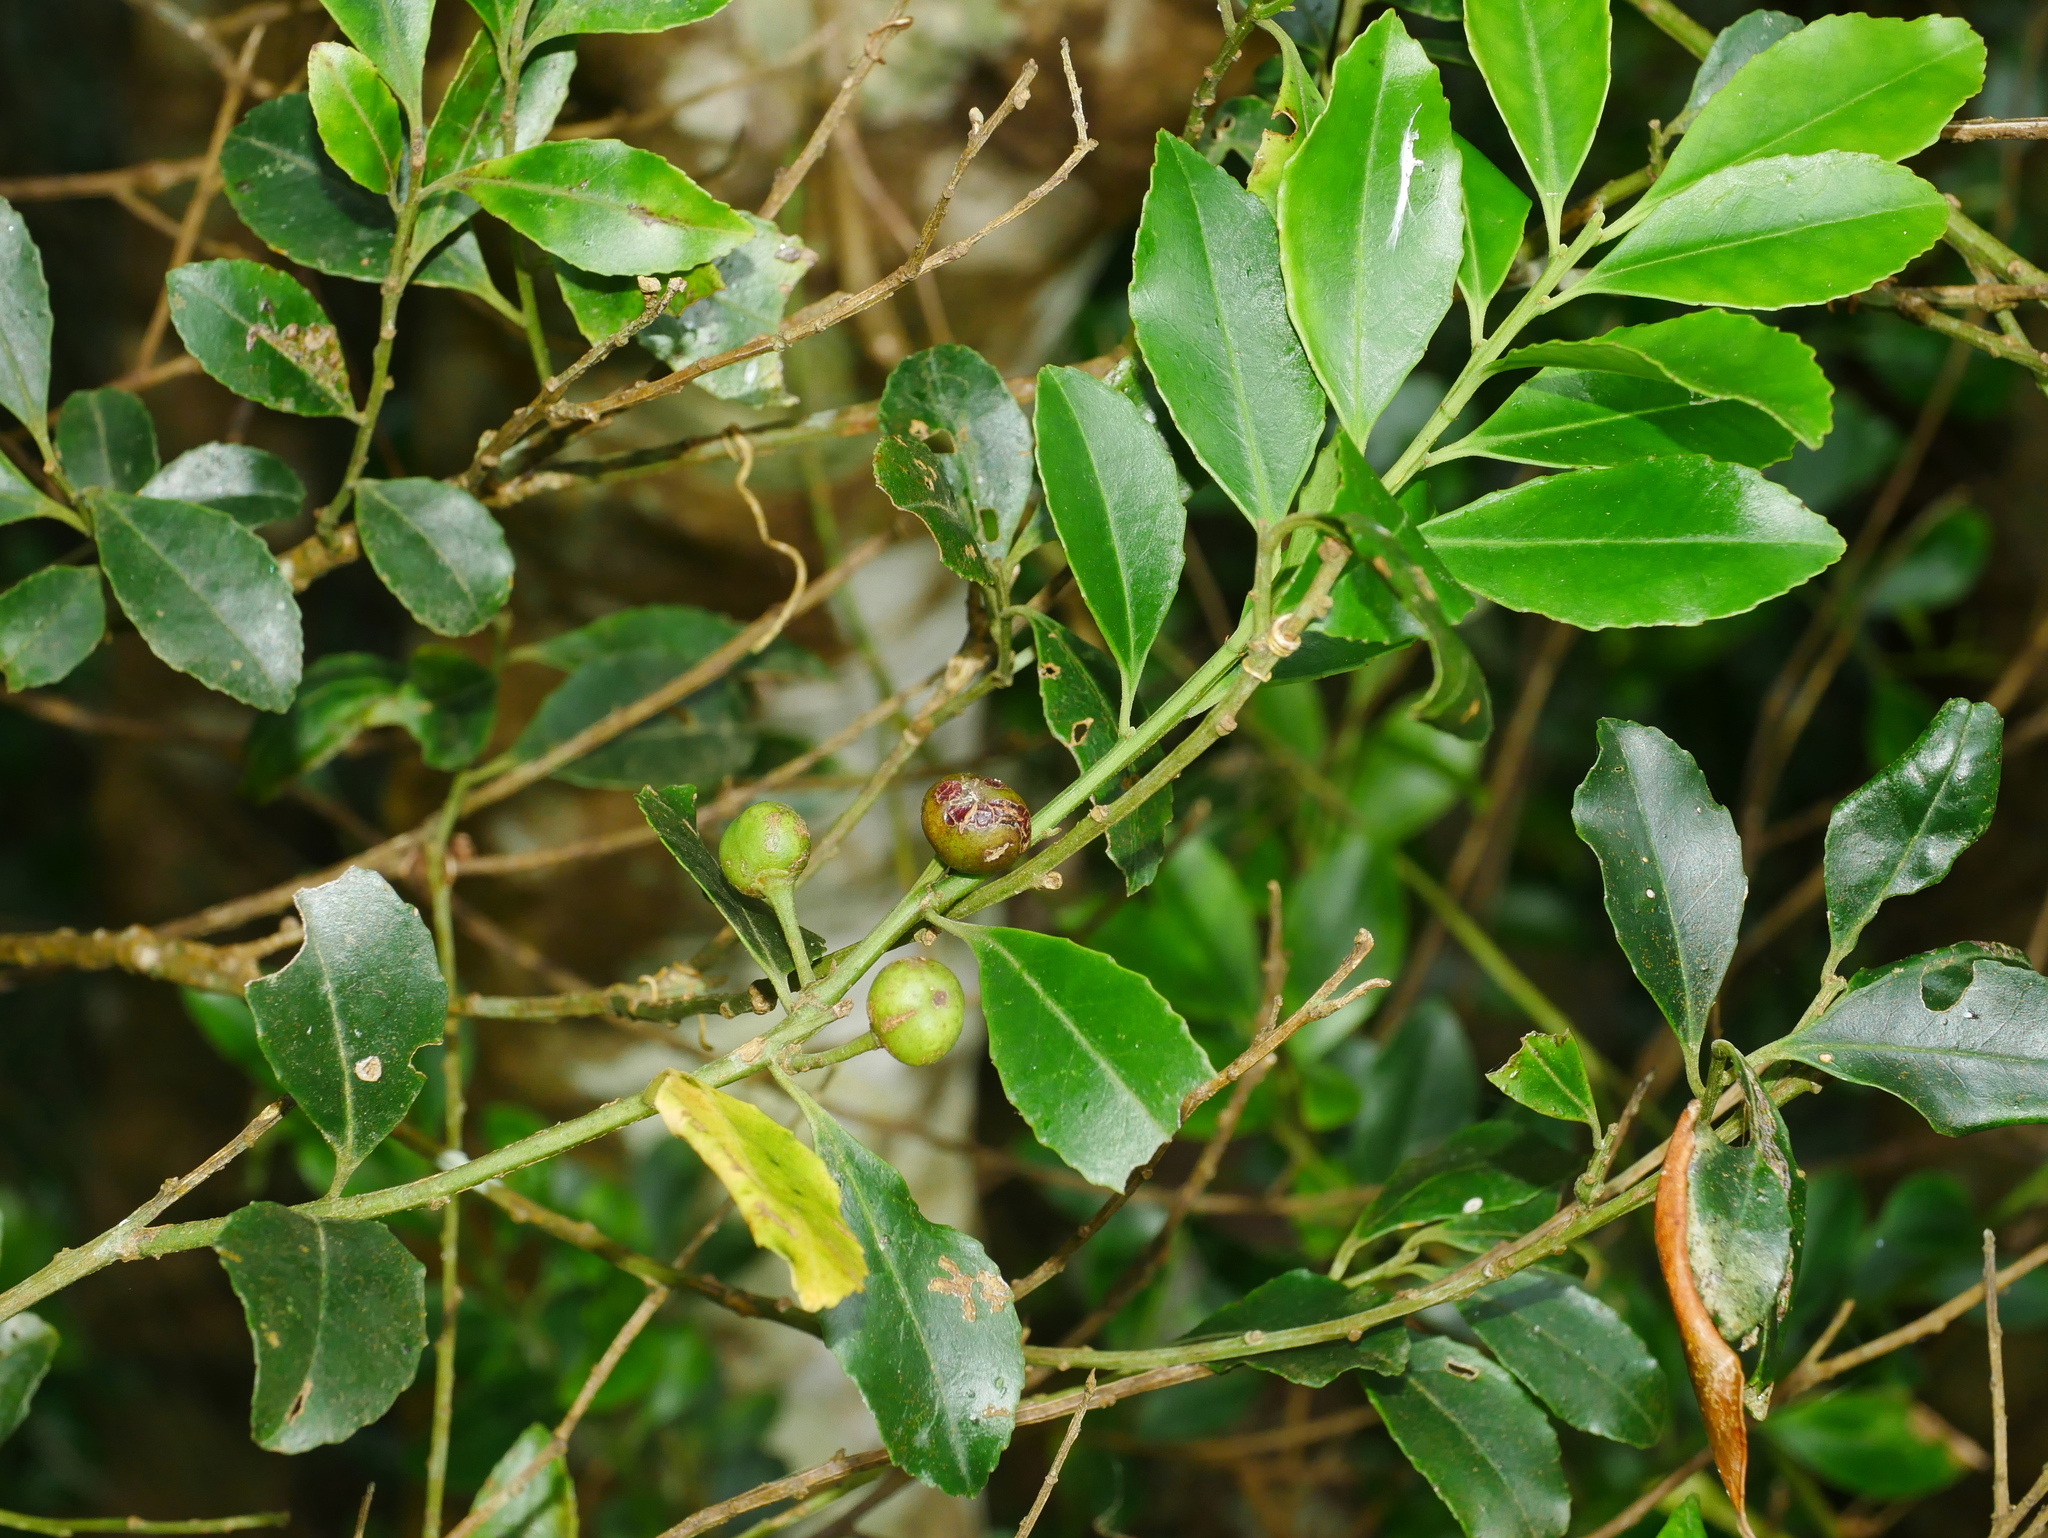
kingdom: Plantae
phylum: Tracheophyta
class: Magnoliopsida
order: Aquifoliales
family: Aquifoliaceae
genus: Ilex
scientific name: Ilex maximowicziana
